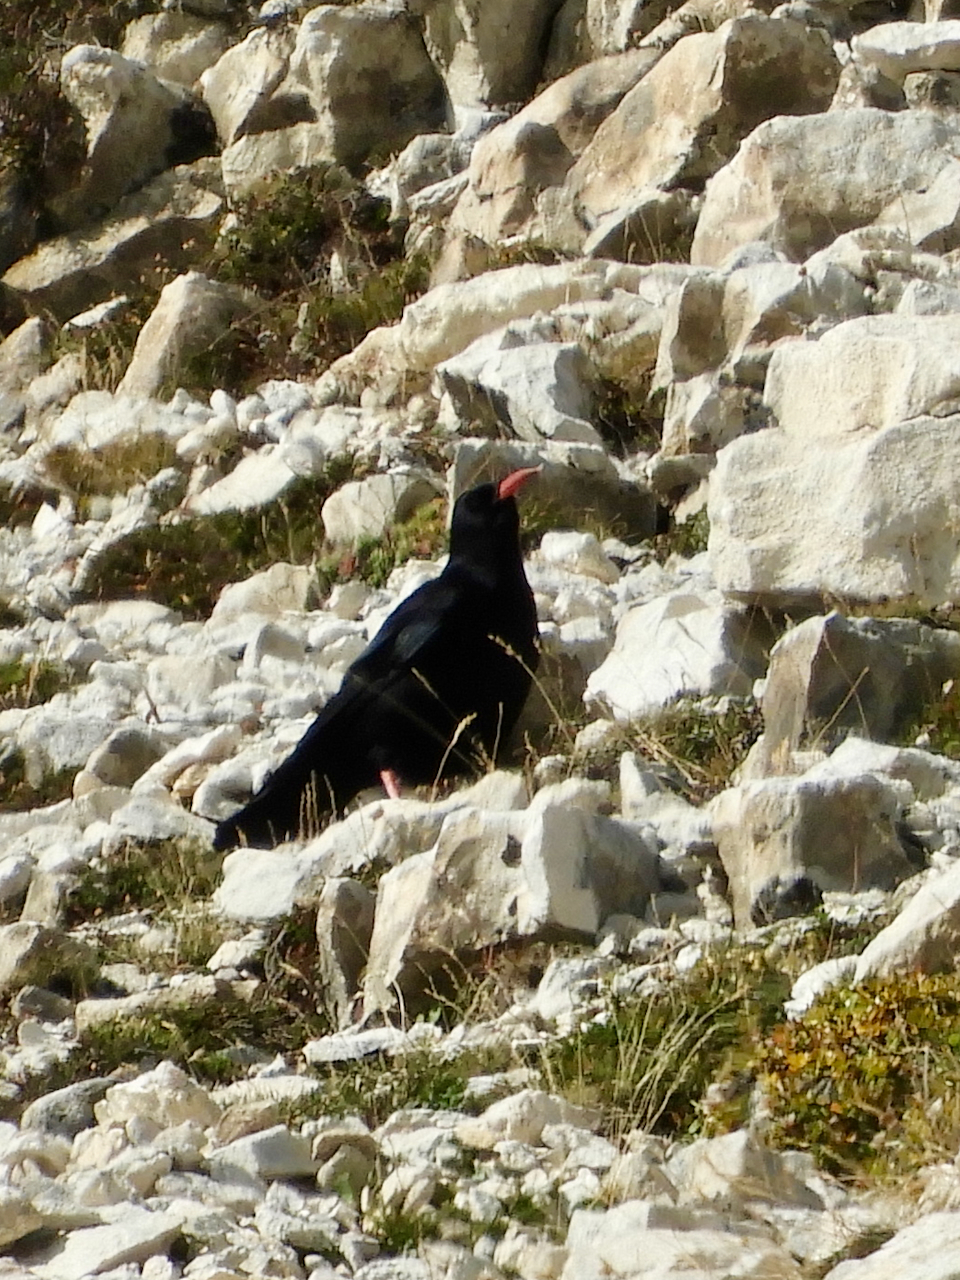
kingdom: Animalia
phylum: Chordata
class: Aves
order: Passeriformes
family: Corvidae
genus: Pyrrhocorax
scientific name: Pyrrhocorax pyrrhocorax
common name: Red-billed chough
